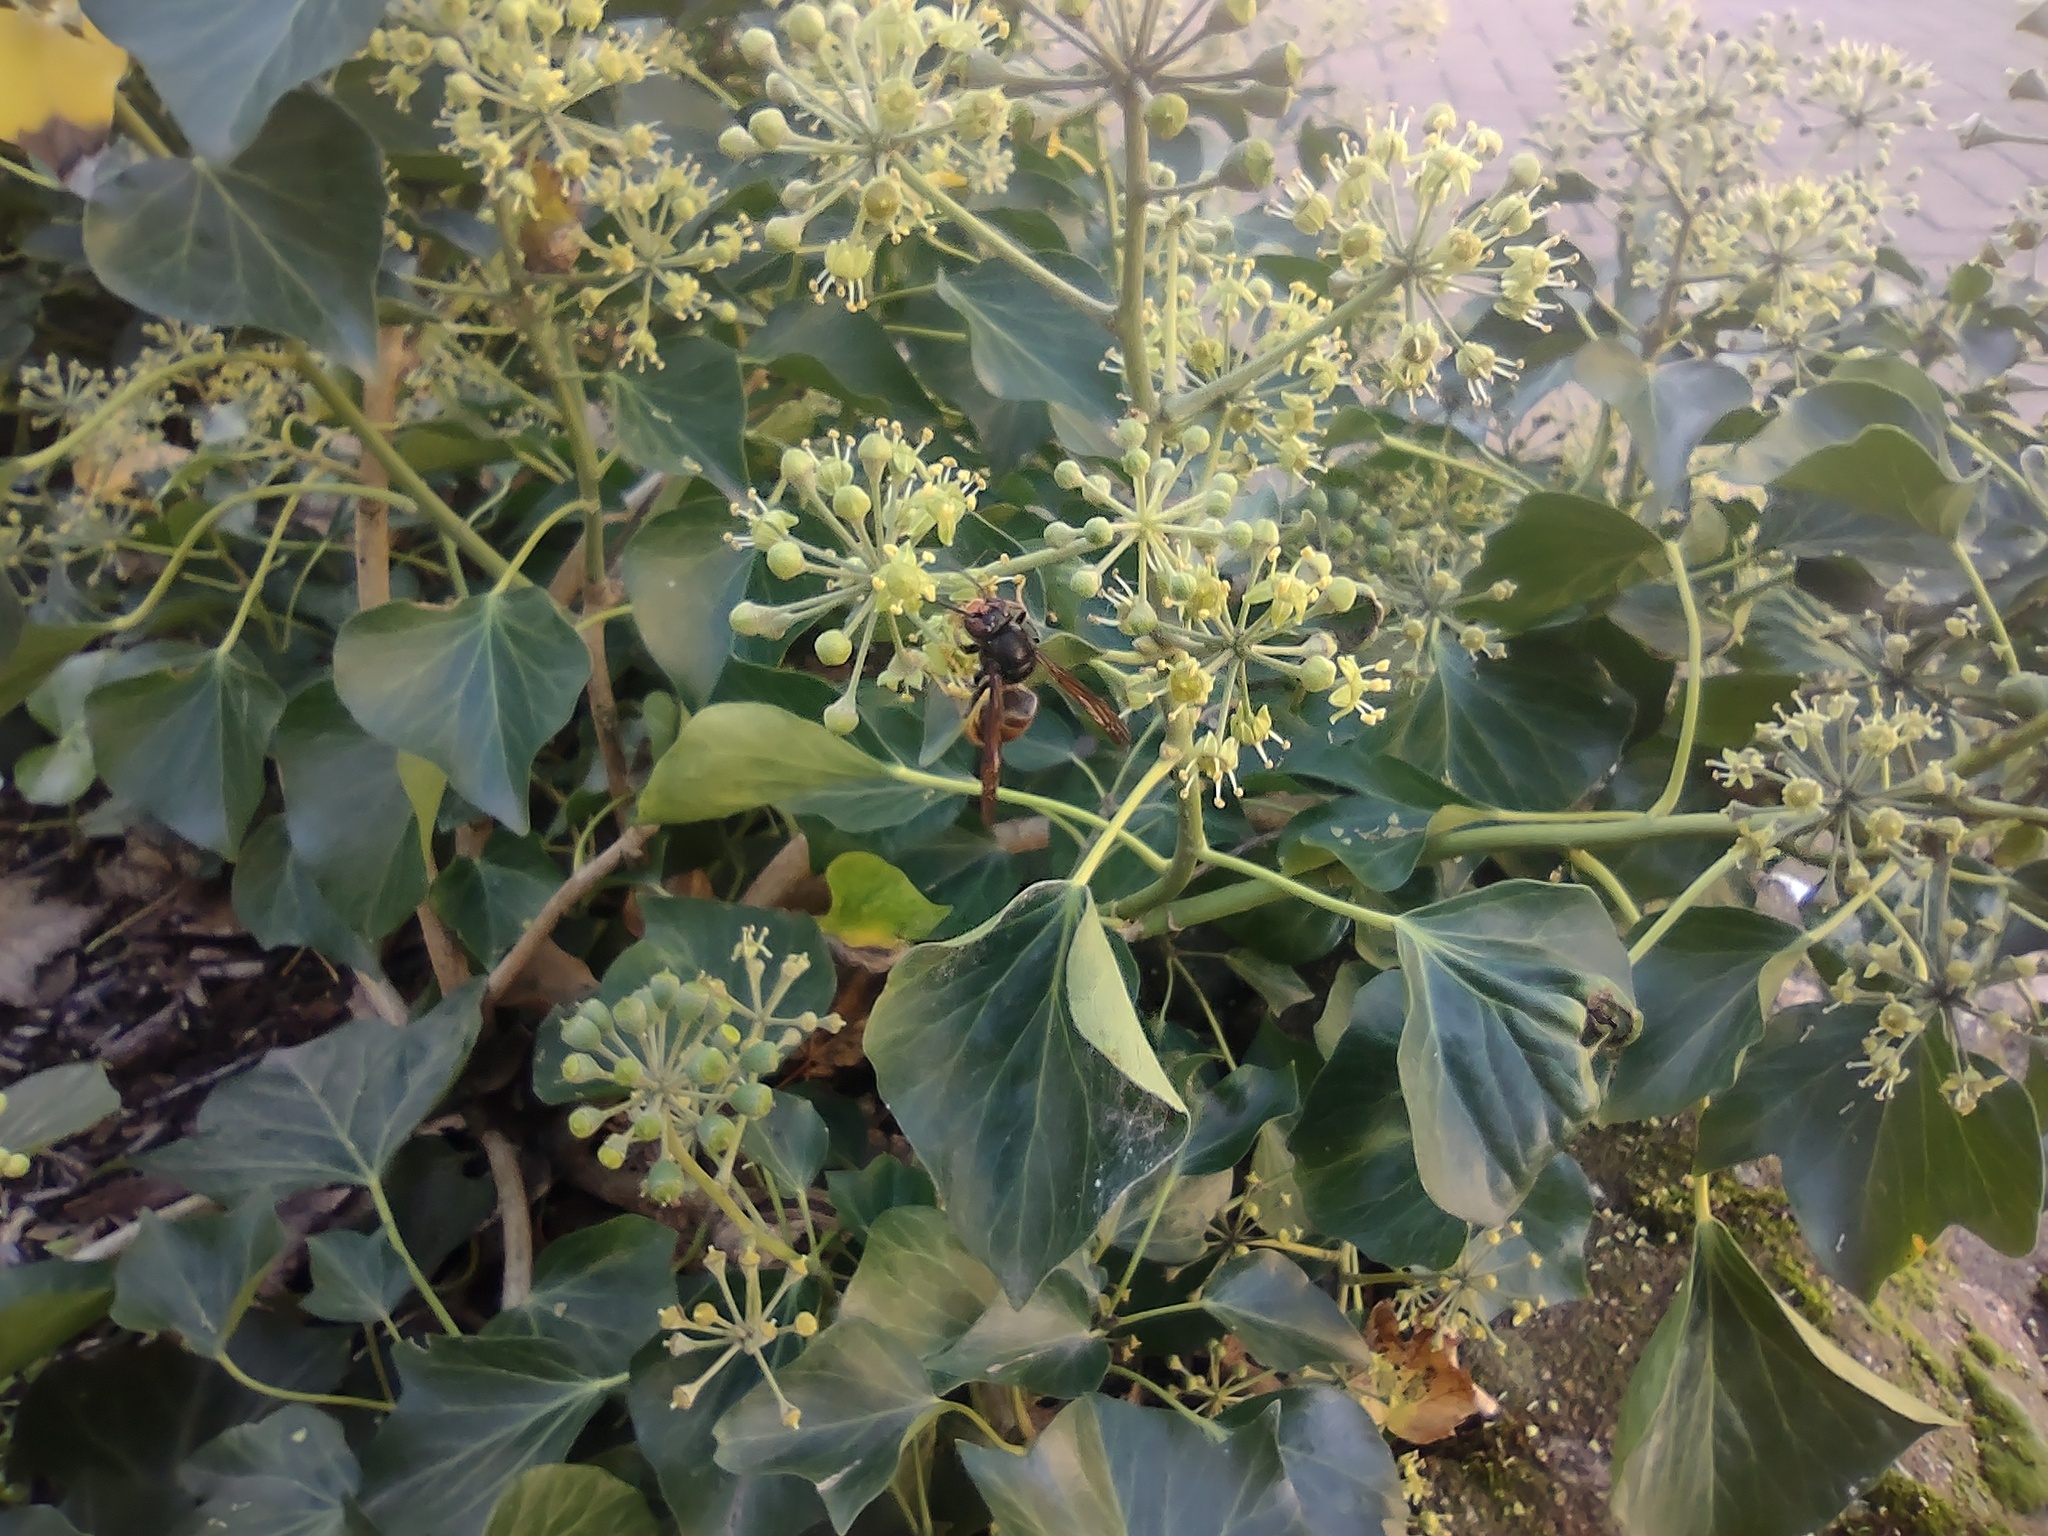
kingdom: Animalia
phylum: Arthropoda
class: Insecta
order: Hymenoptera
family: Vespidae
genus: Vespa
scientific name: Vespa velutina
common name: Asian hornet
